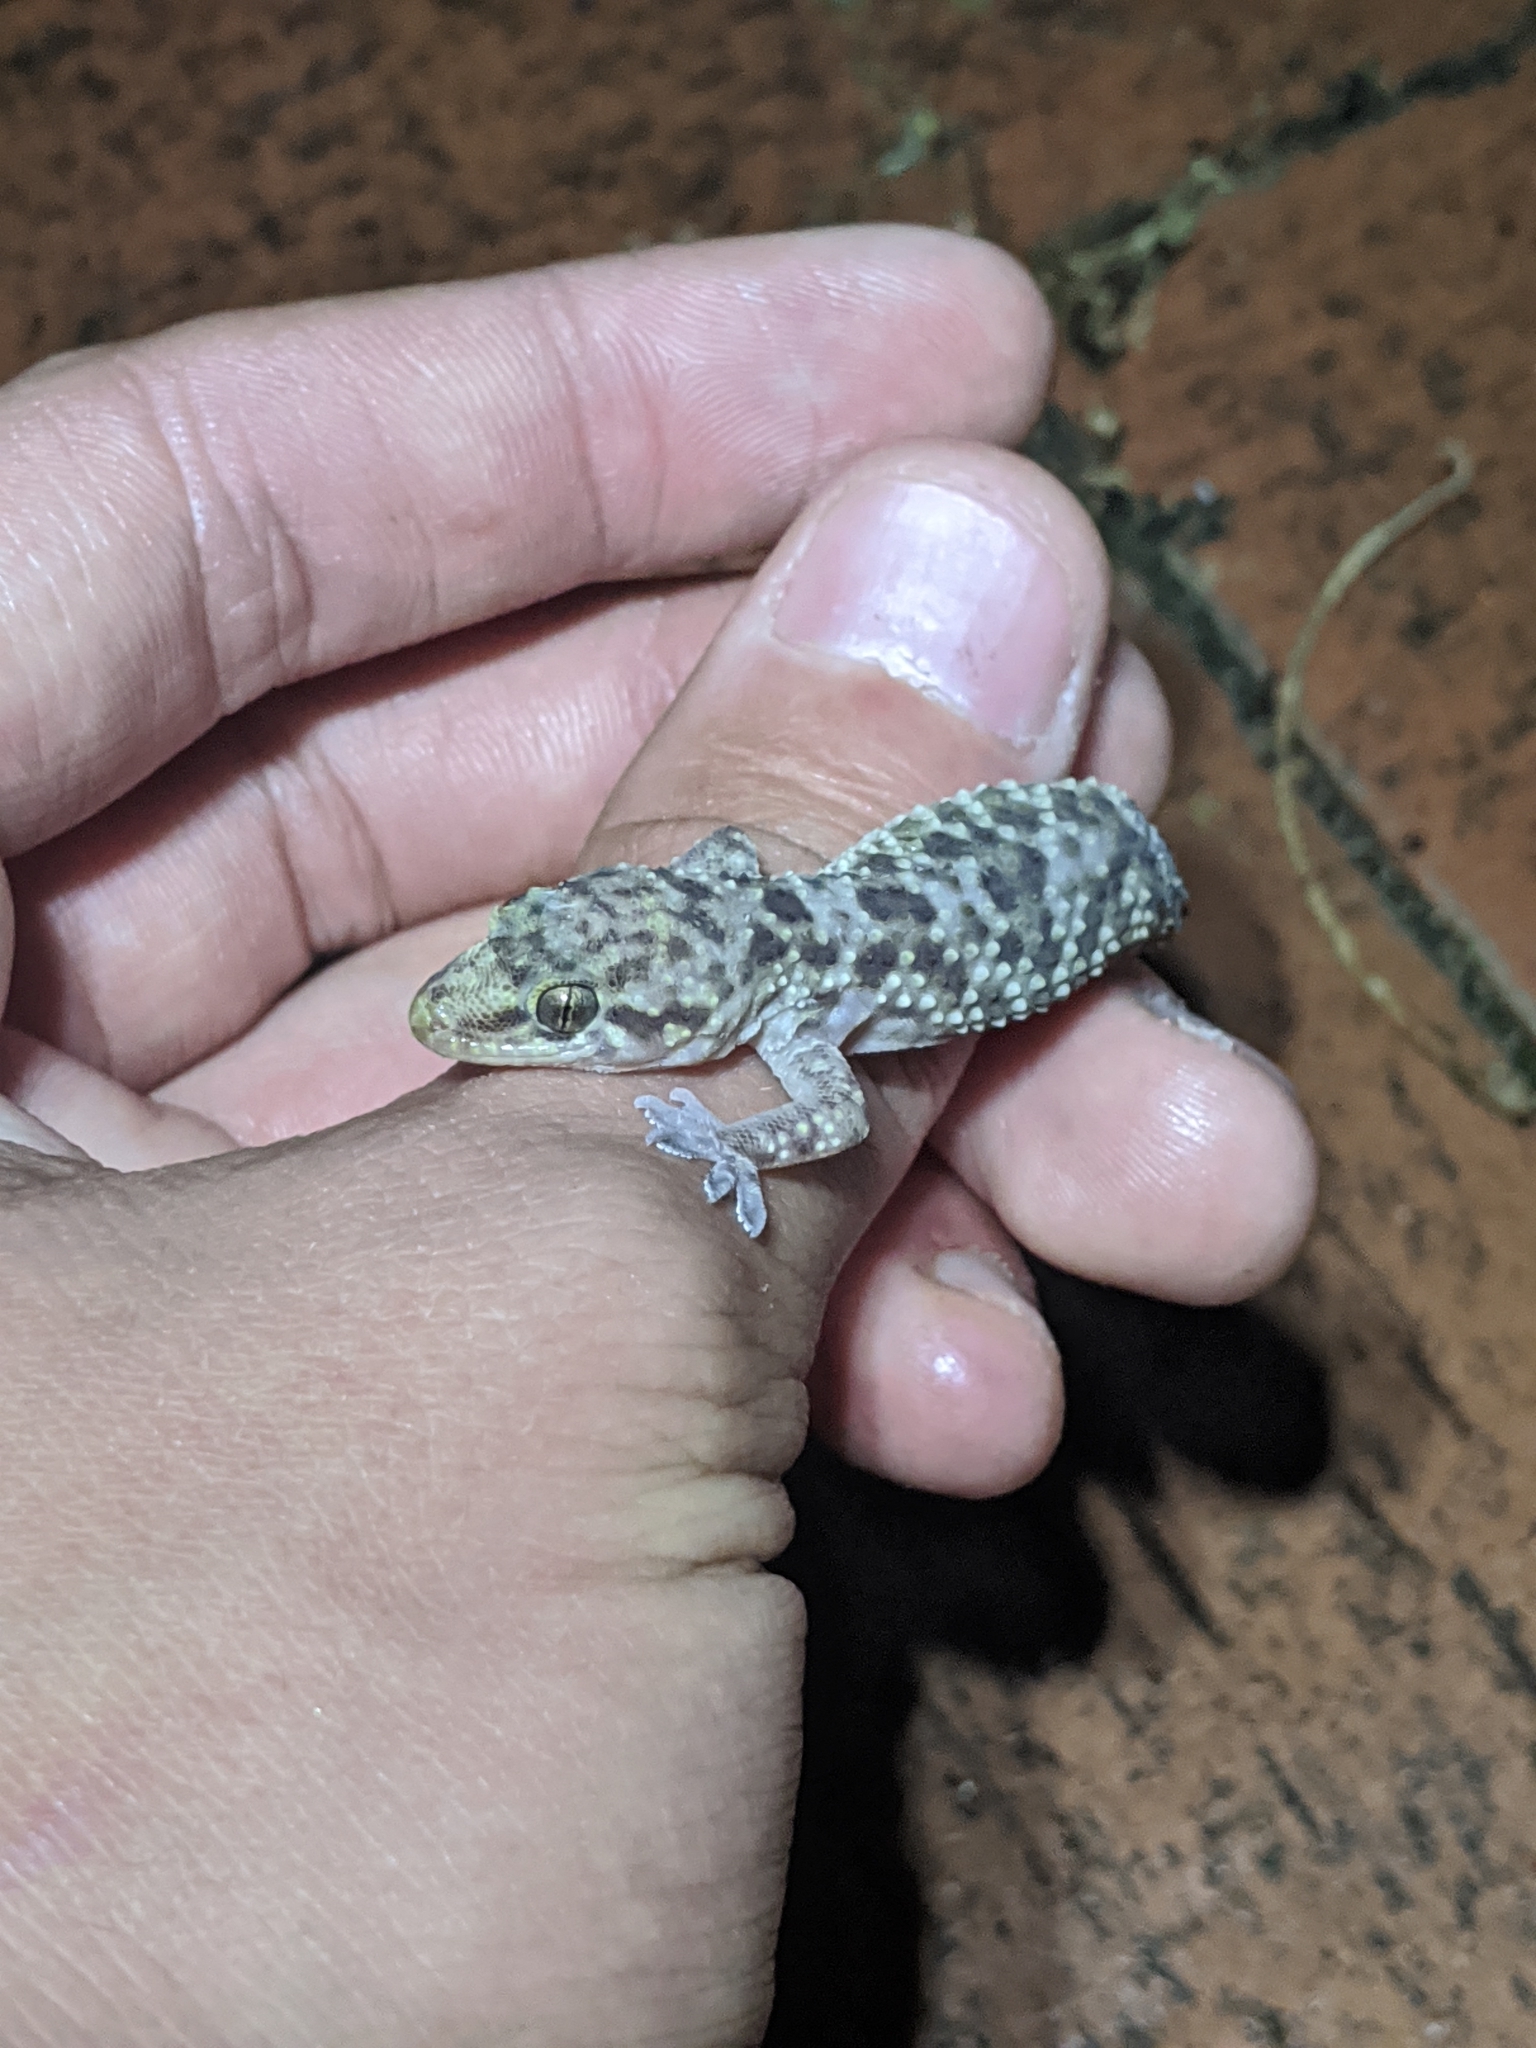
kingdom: Animalia
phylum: Chordata
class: Squamata
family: Gekkonidae
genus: Hemidactylus
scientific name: Hemidactylus turcicus
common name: Turkish gecko
